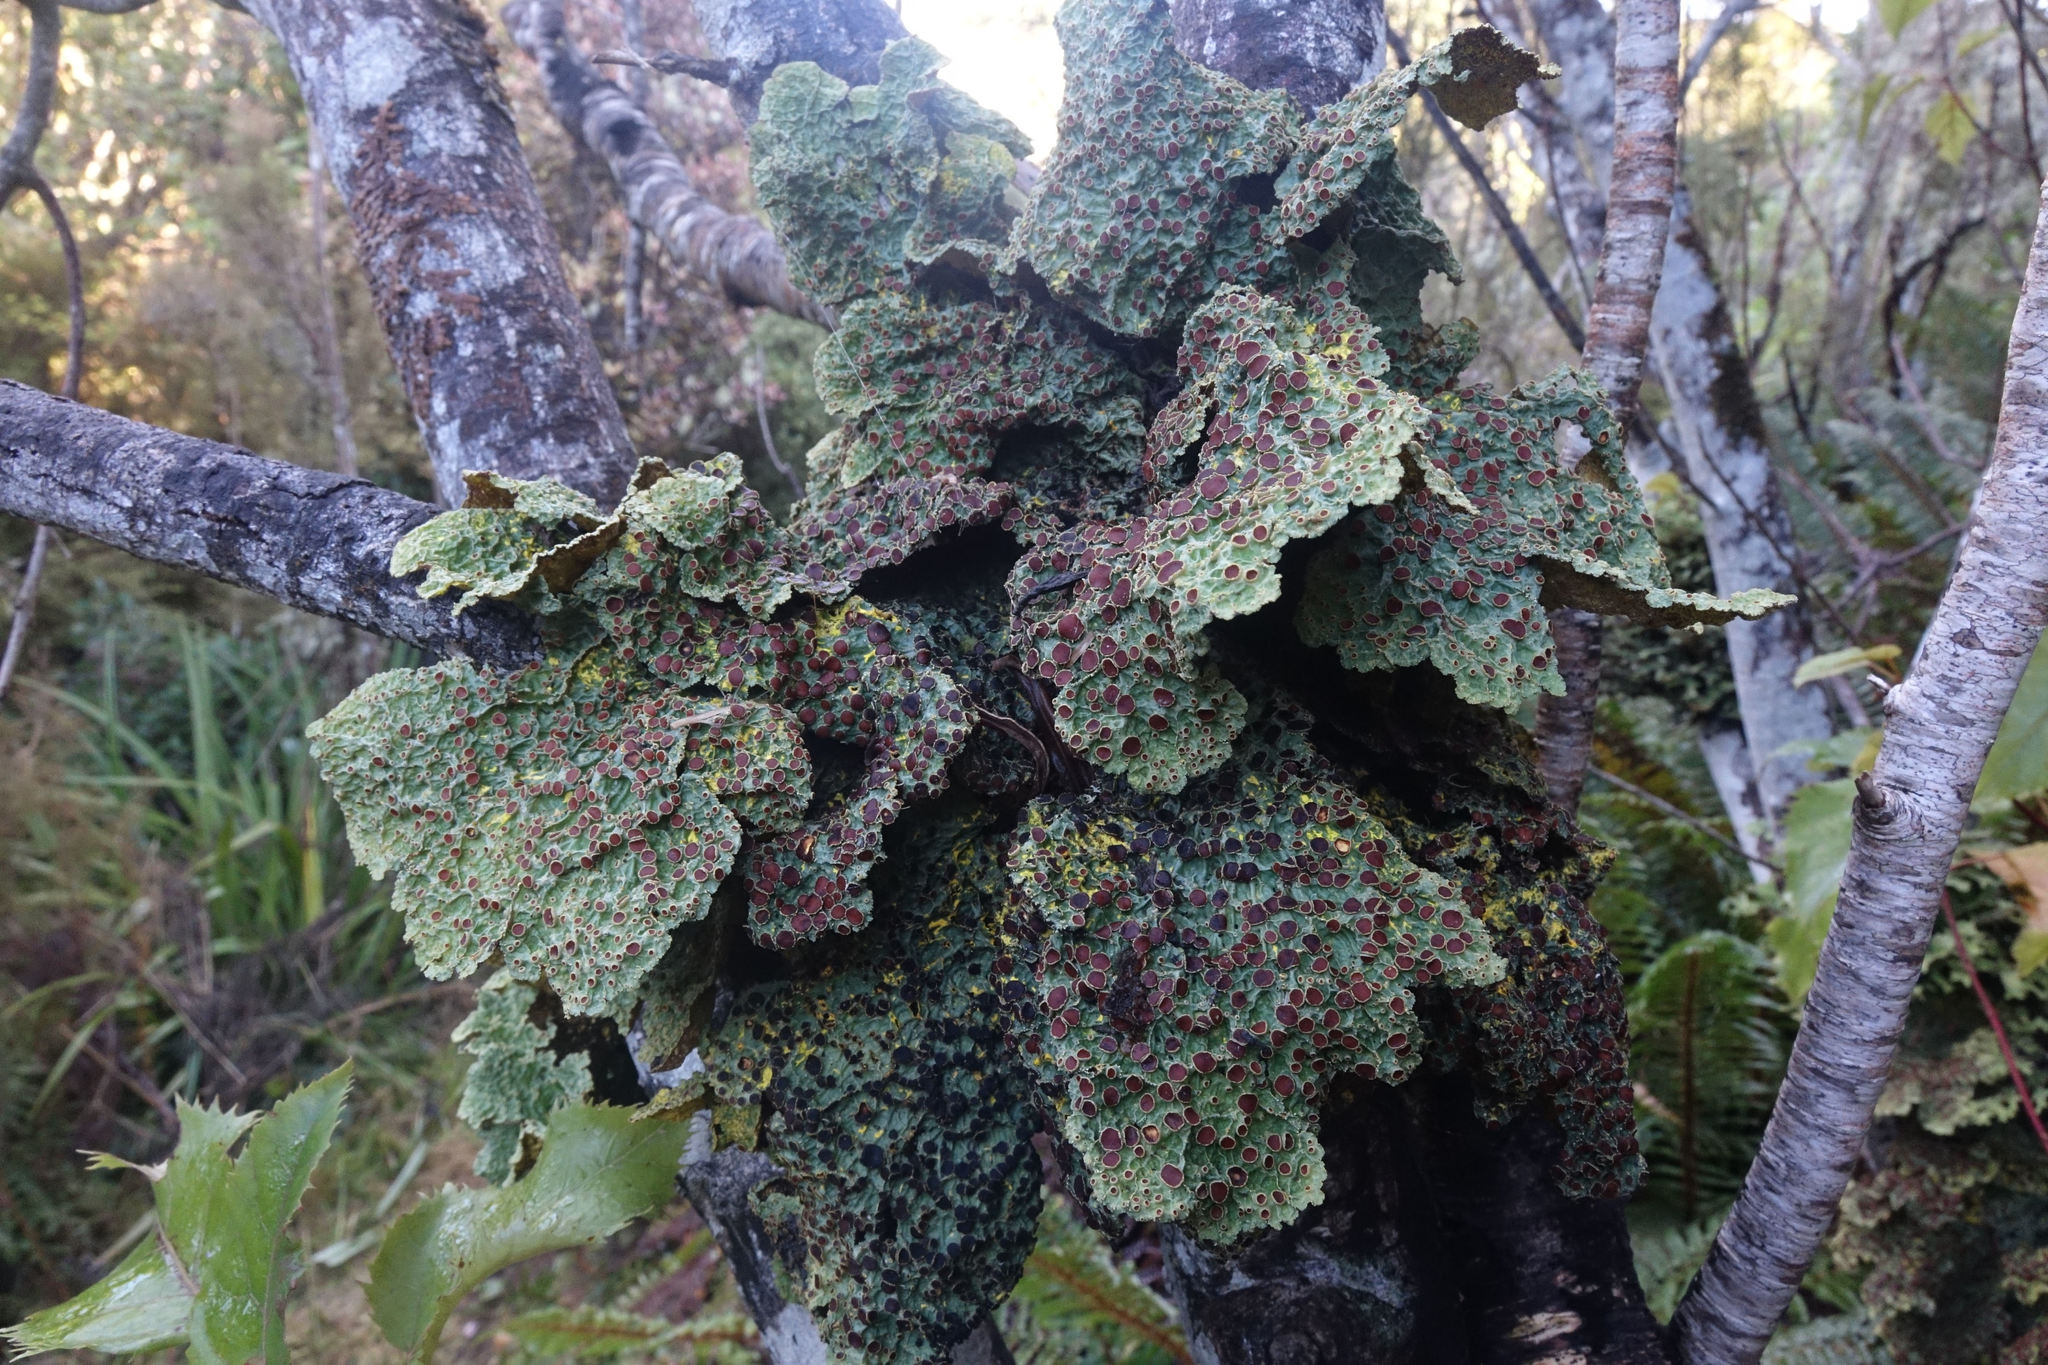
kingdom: Fungi
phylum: Ascomycota
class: Lecanoromycetes
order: Peltigerales
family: Lobariaceae
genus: Yarrumia
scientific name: Yarrumia coronata
